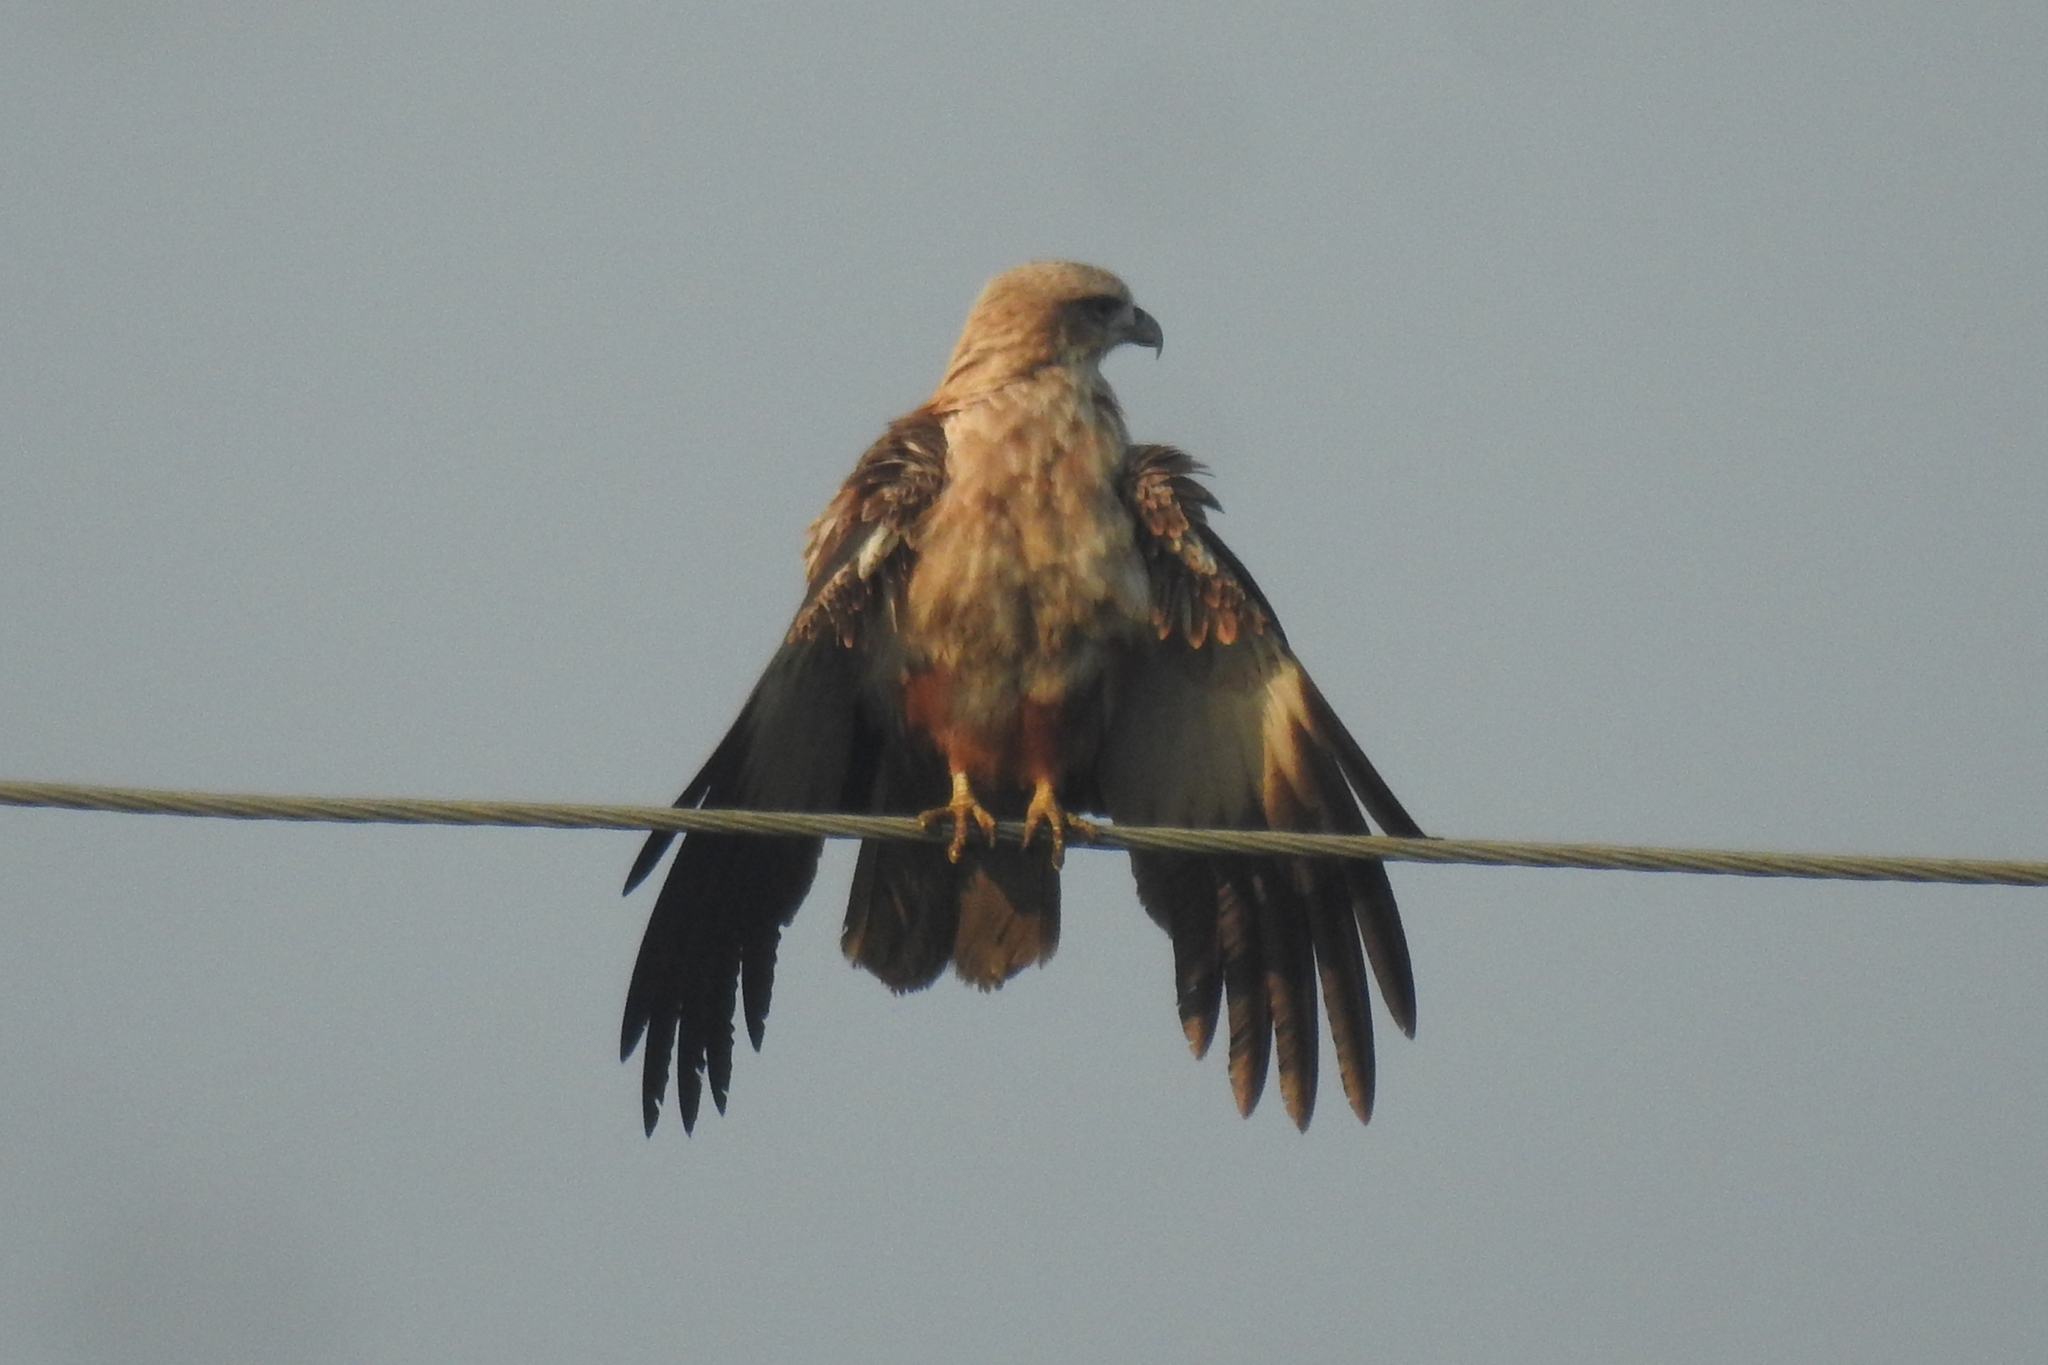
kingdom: Animalia
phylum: Chordata
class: Aves
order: Accipitriformes
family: Accipitridae
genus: Haliastur
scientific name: Haliastur indus
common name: Brahminy kite
